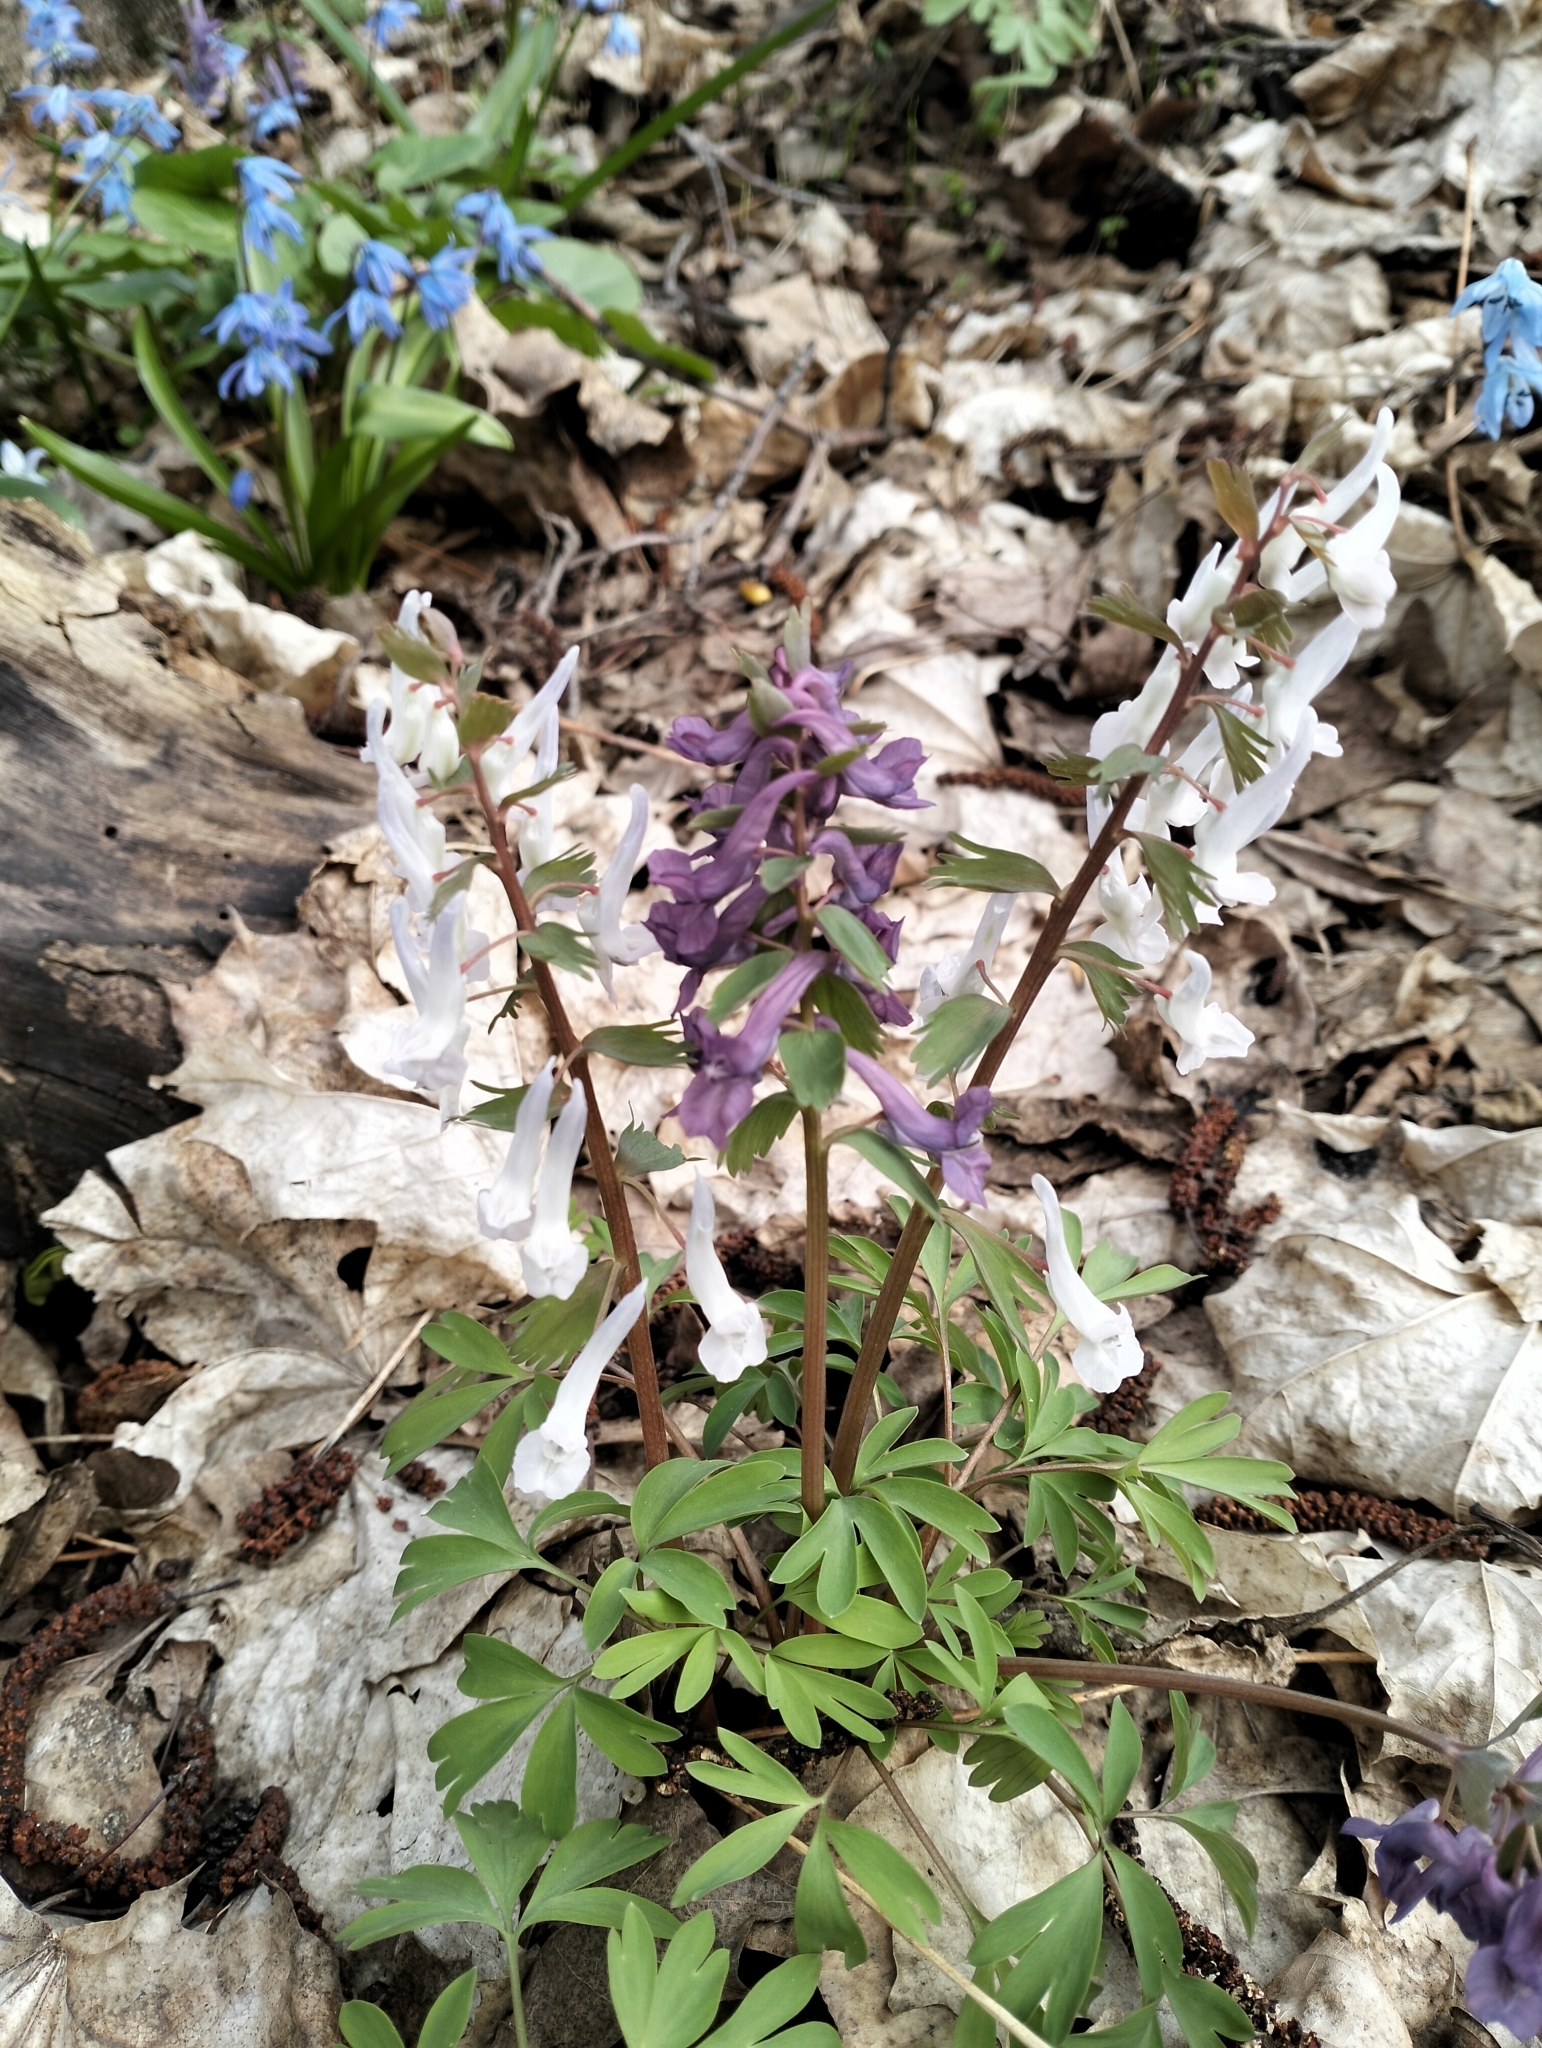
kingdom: Plantae
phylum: Tracheophyta
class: Magnoliopsida
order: Ranunculales
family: Papaveraceae
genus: Corydalis
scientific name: Corydalis solida
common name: Bird-in-a-bush
